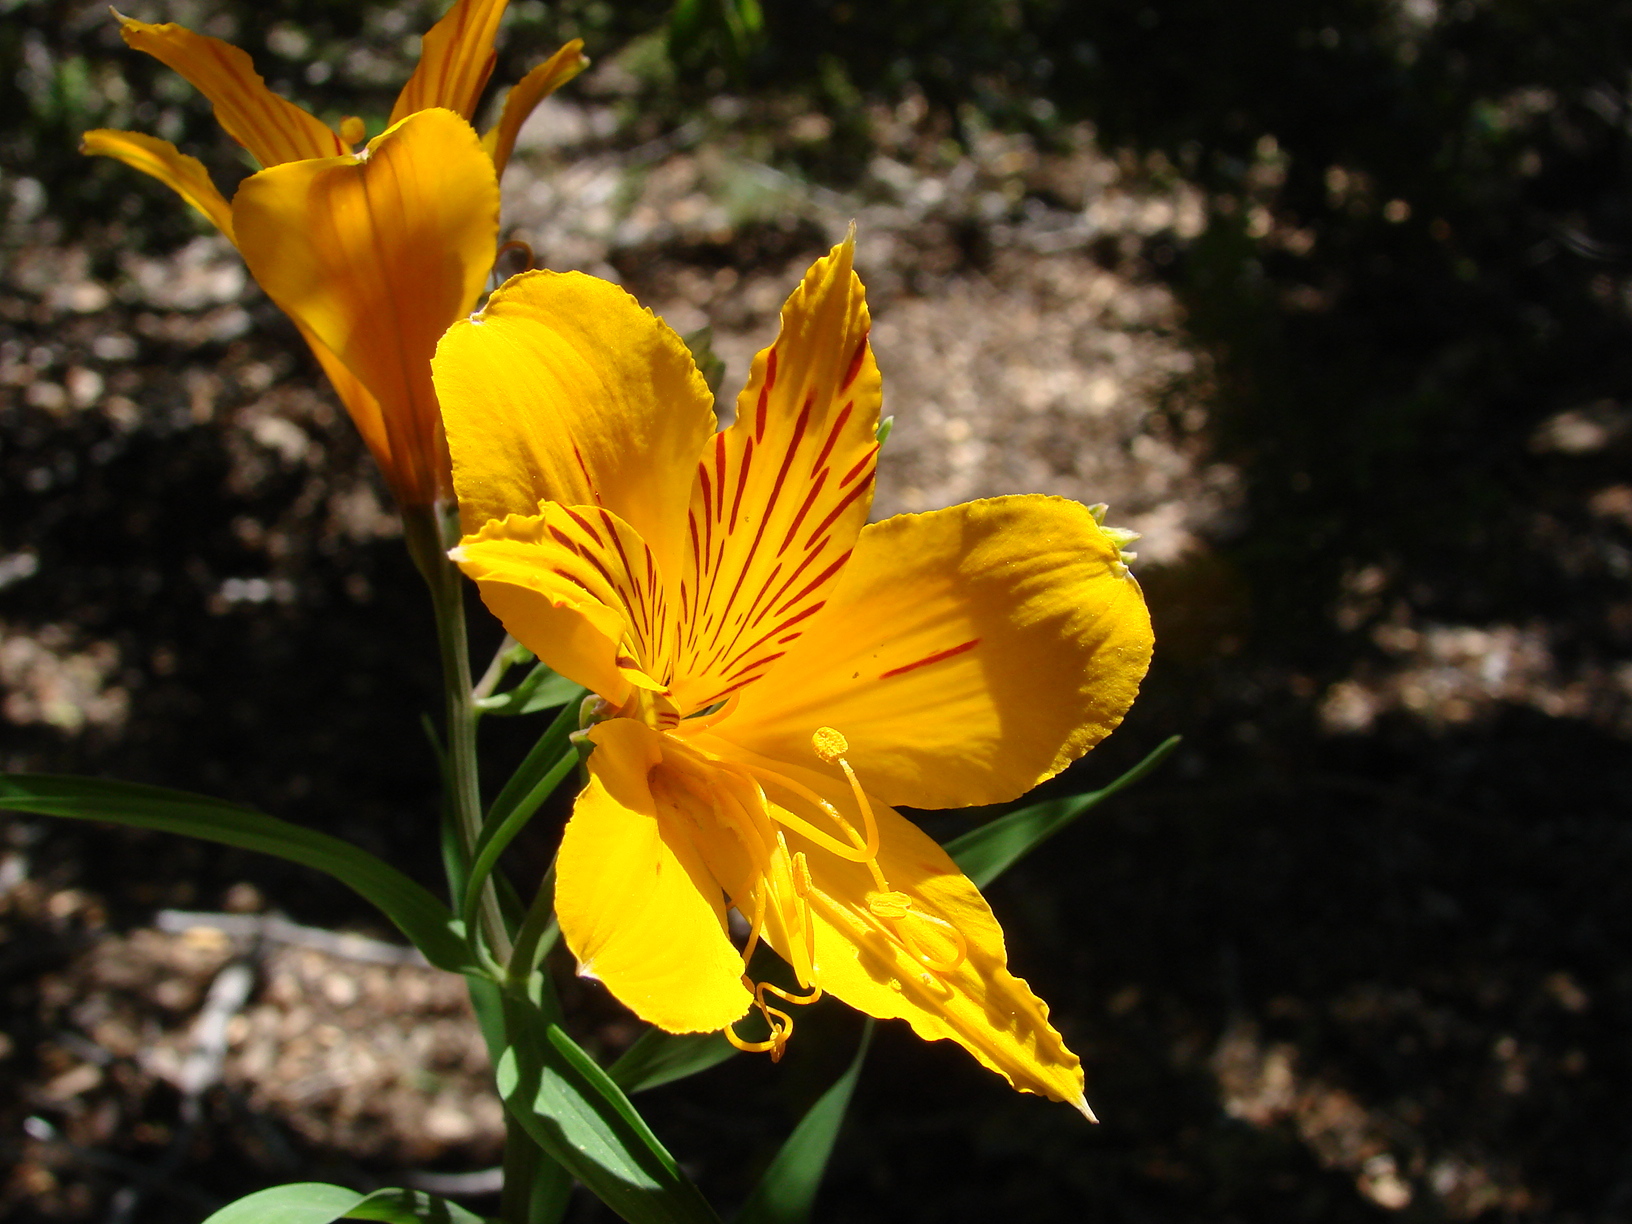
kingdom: Plantae
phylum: Tracheophyta
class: Liliopsida
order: Liliales
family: Alstroemeriaceae
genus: Alstroemeria
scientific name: Alstroemeria aurea
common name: Peruvian lily
